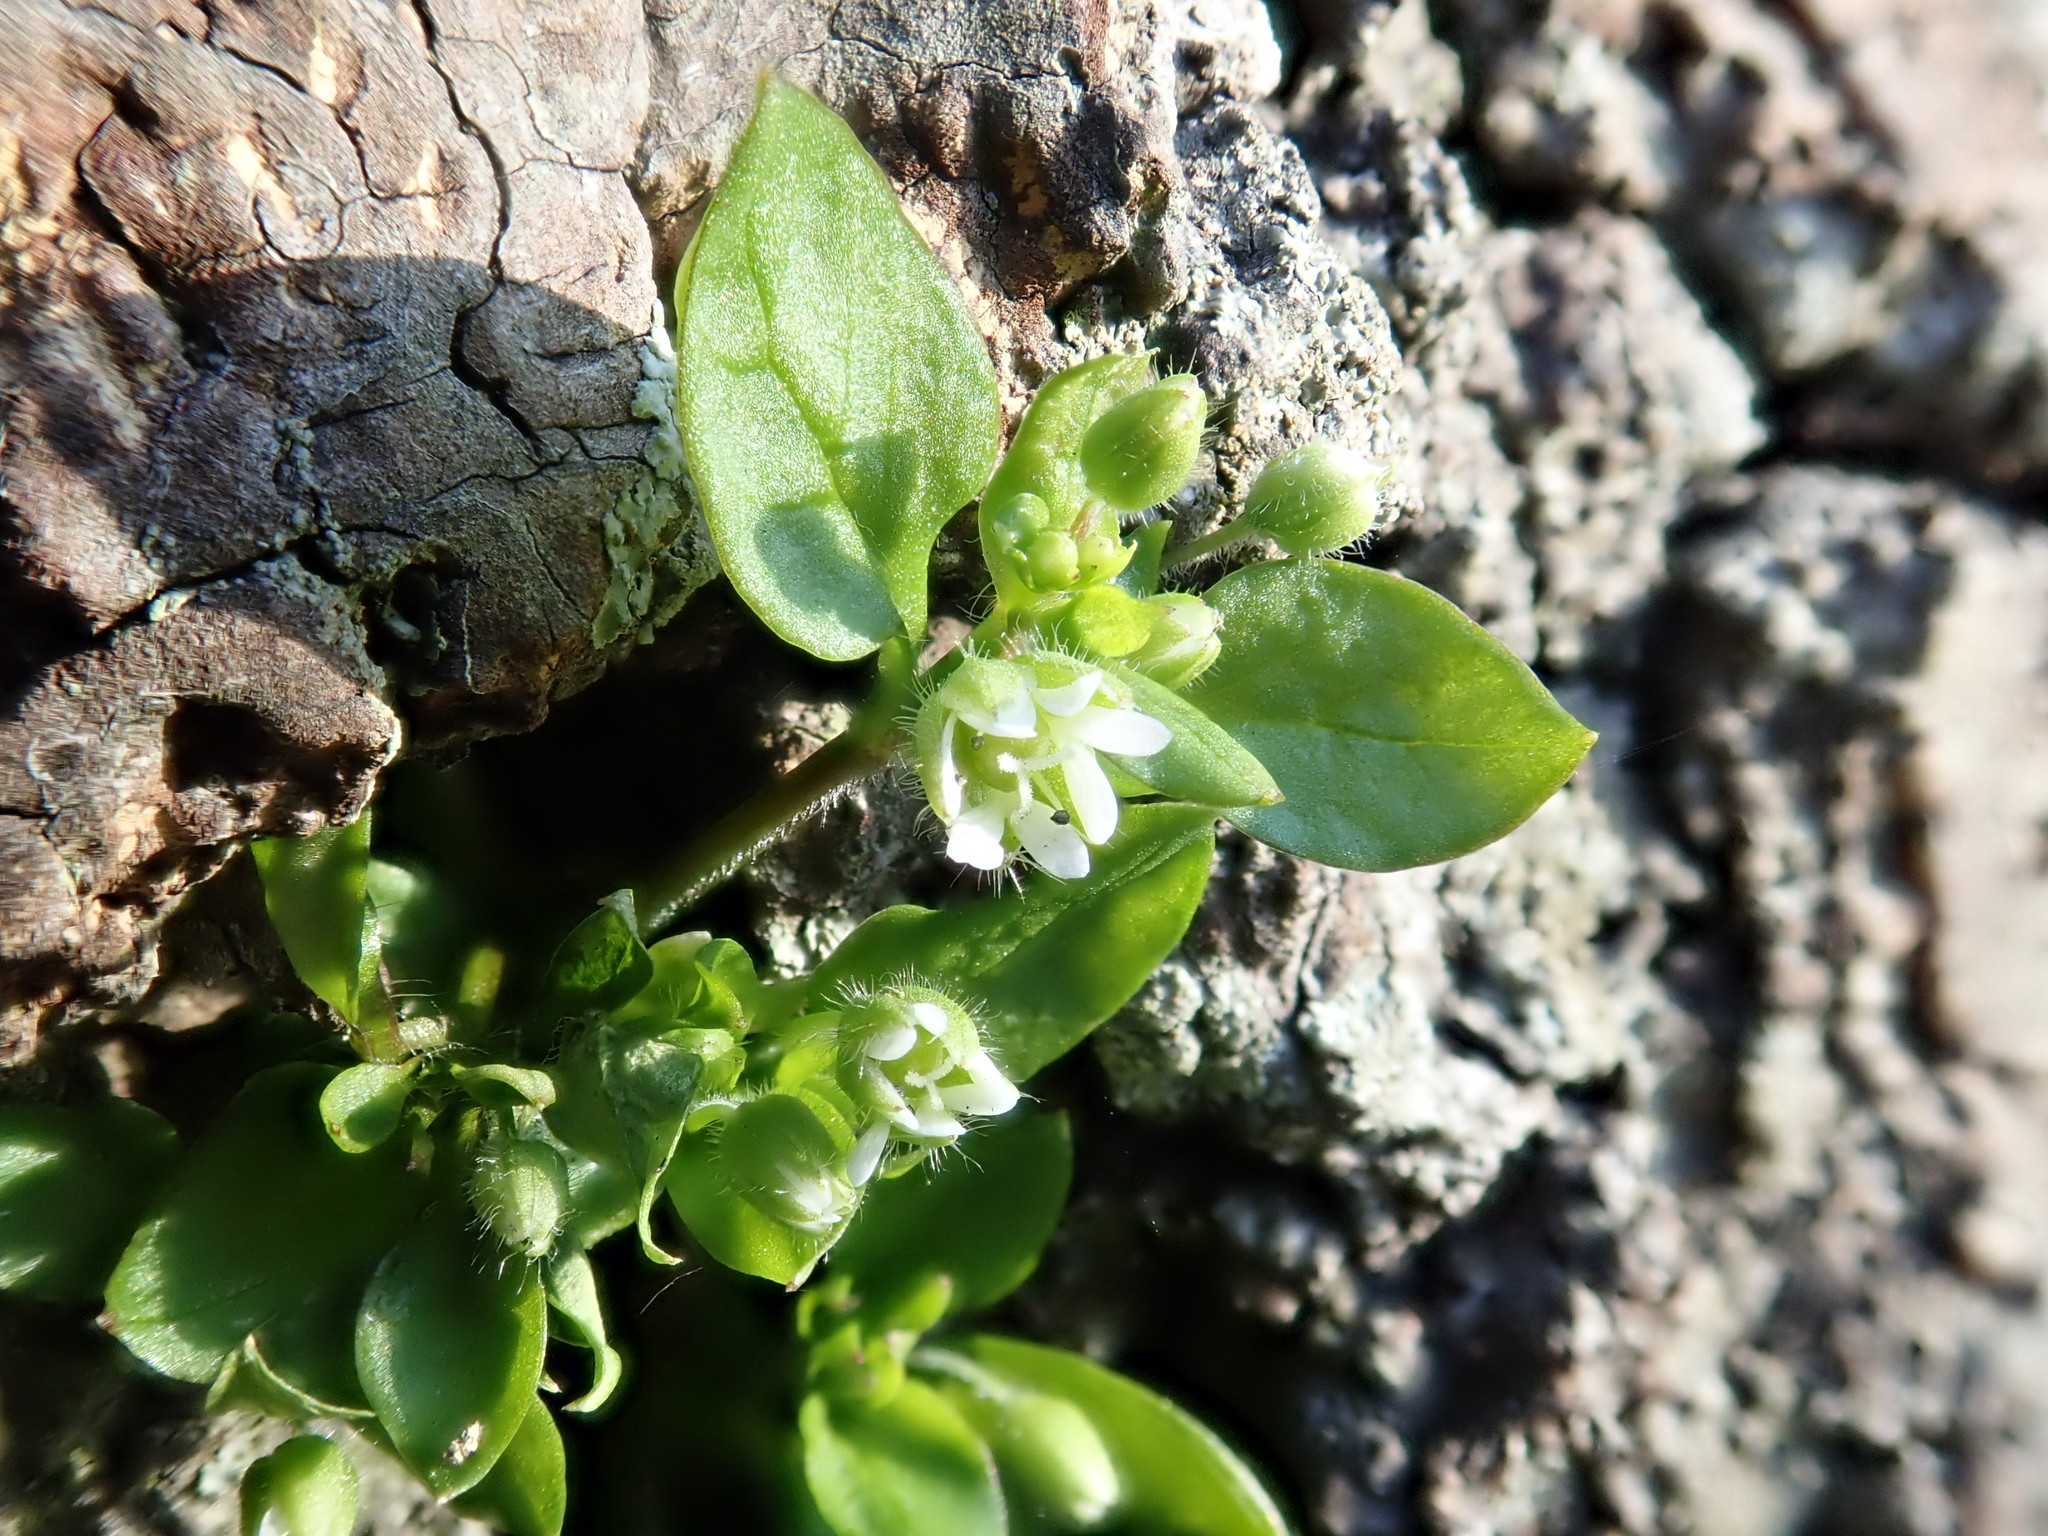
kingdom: Plantae
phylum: Tracheophyta
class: Magnoliopsida
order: Caryophyllales
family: Caryophyllaceae
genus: Stellaria
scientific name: Stellaria media
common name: Common chickweed
